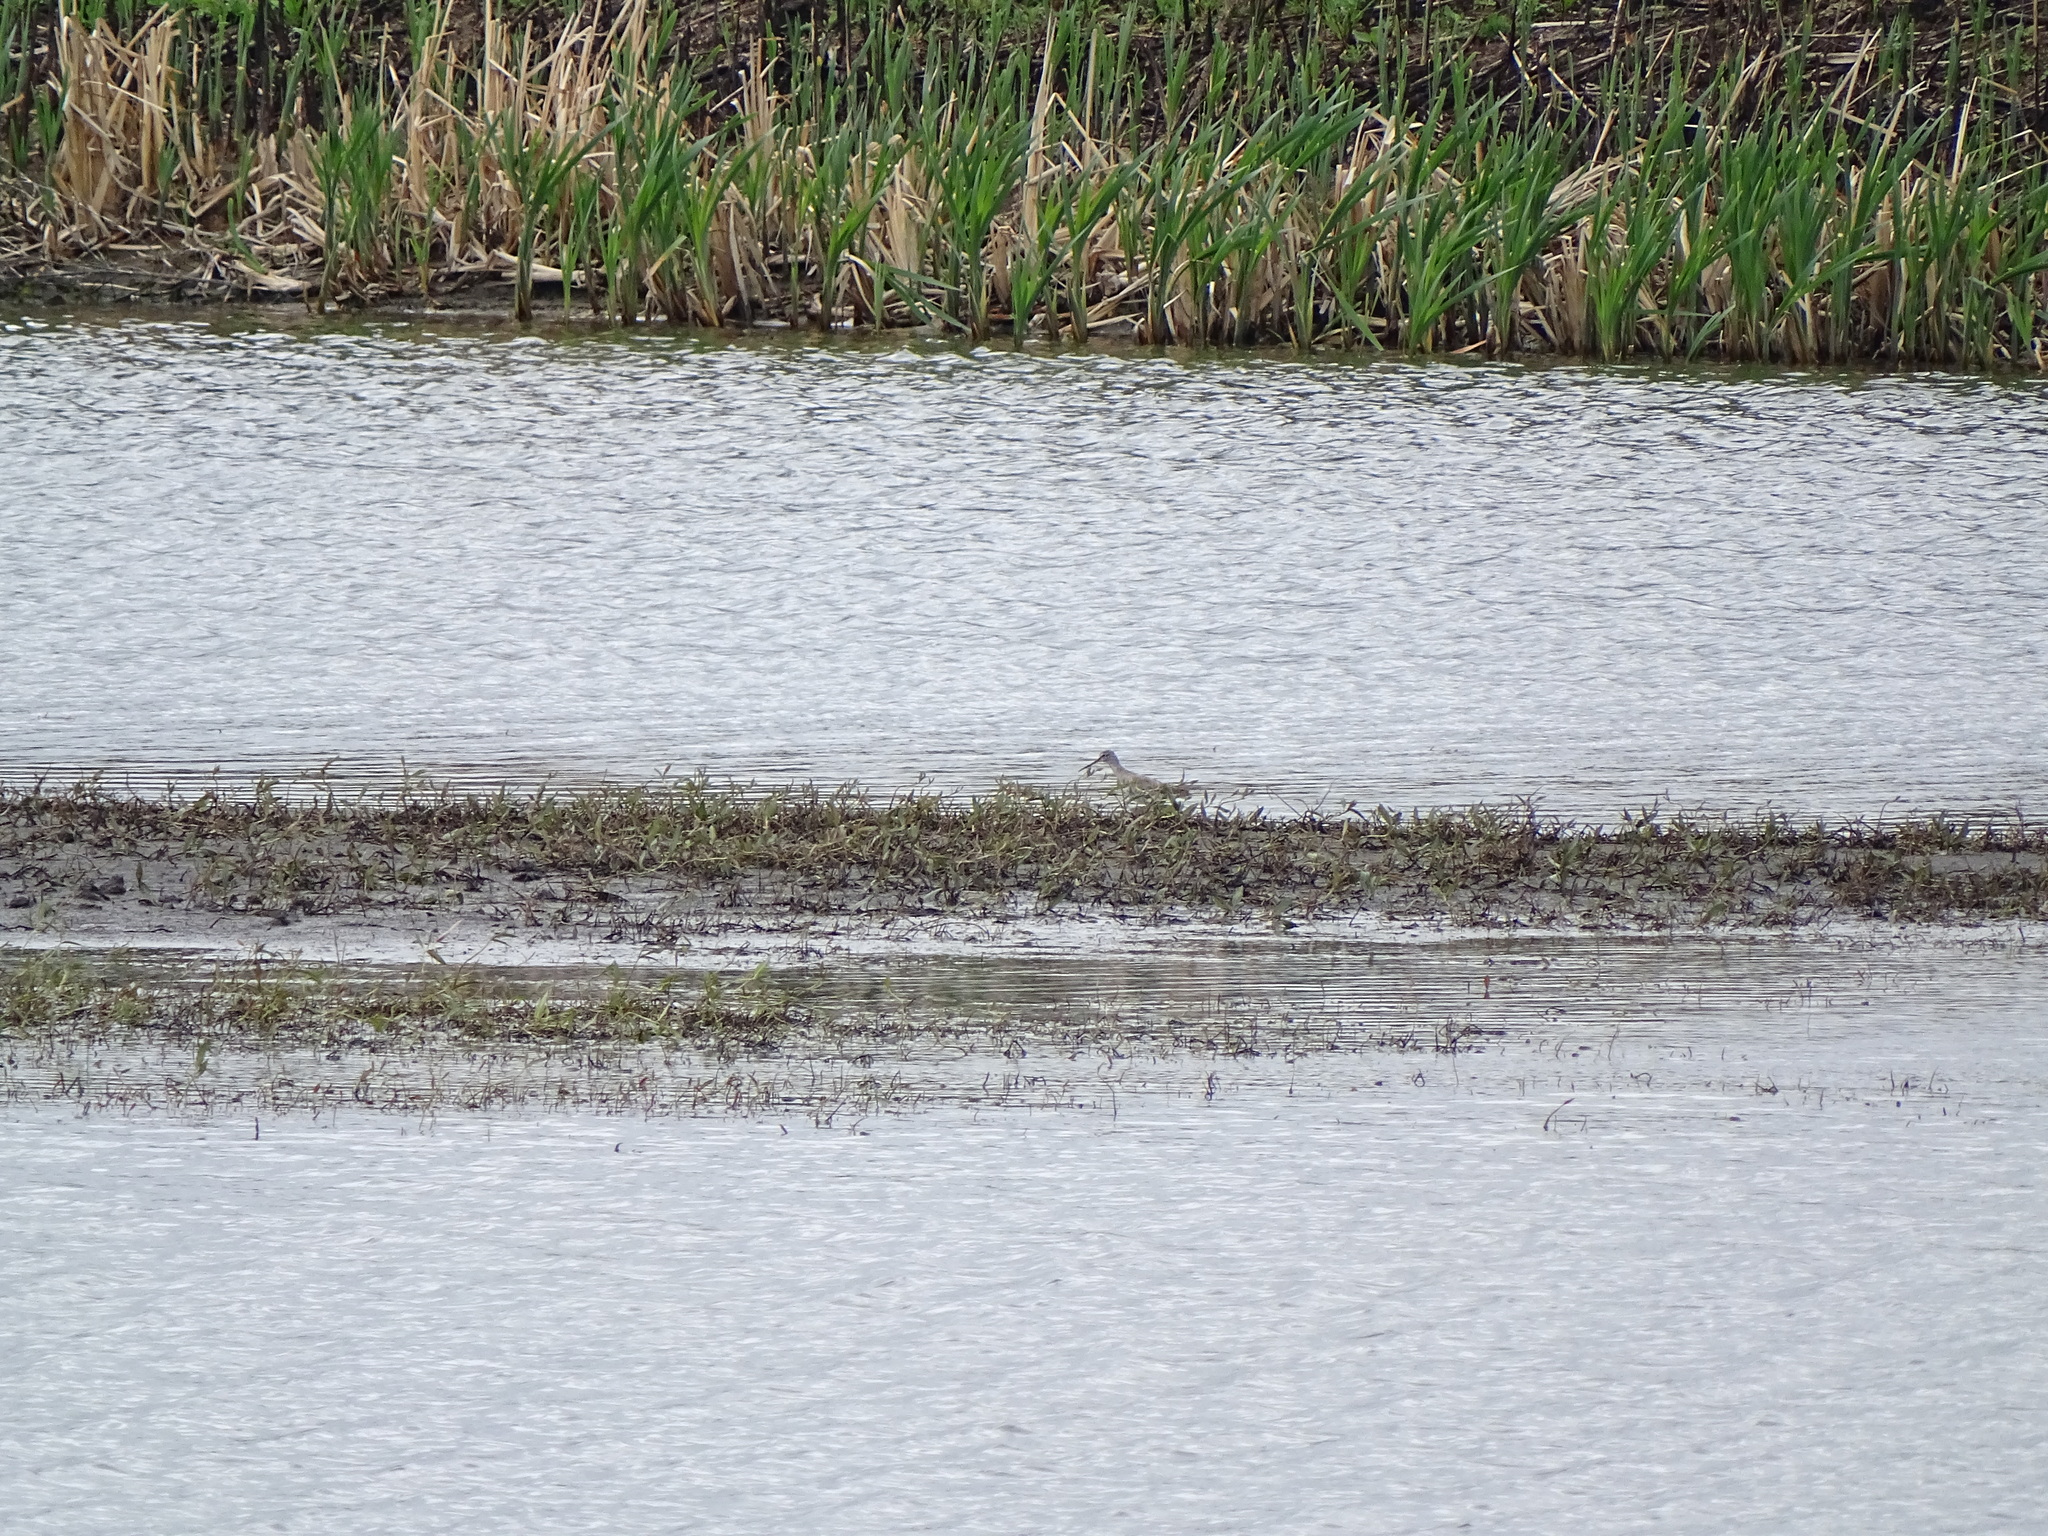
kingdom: Animalia
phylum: Chordata
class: Aves
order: Charadriiformes
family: Scolopacidae
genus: Tringa
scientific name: Tringa erythropus
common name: Spotted redshank
